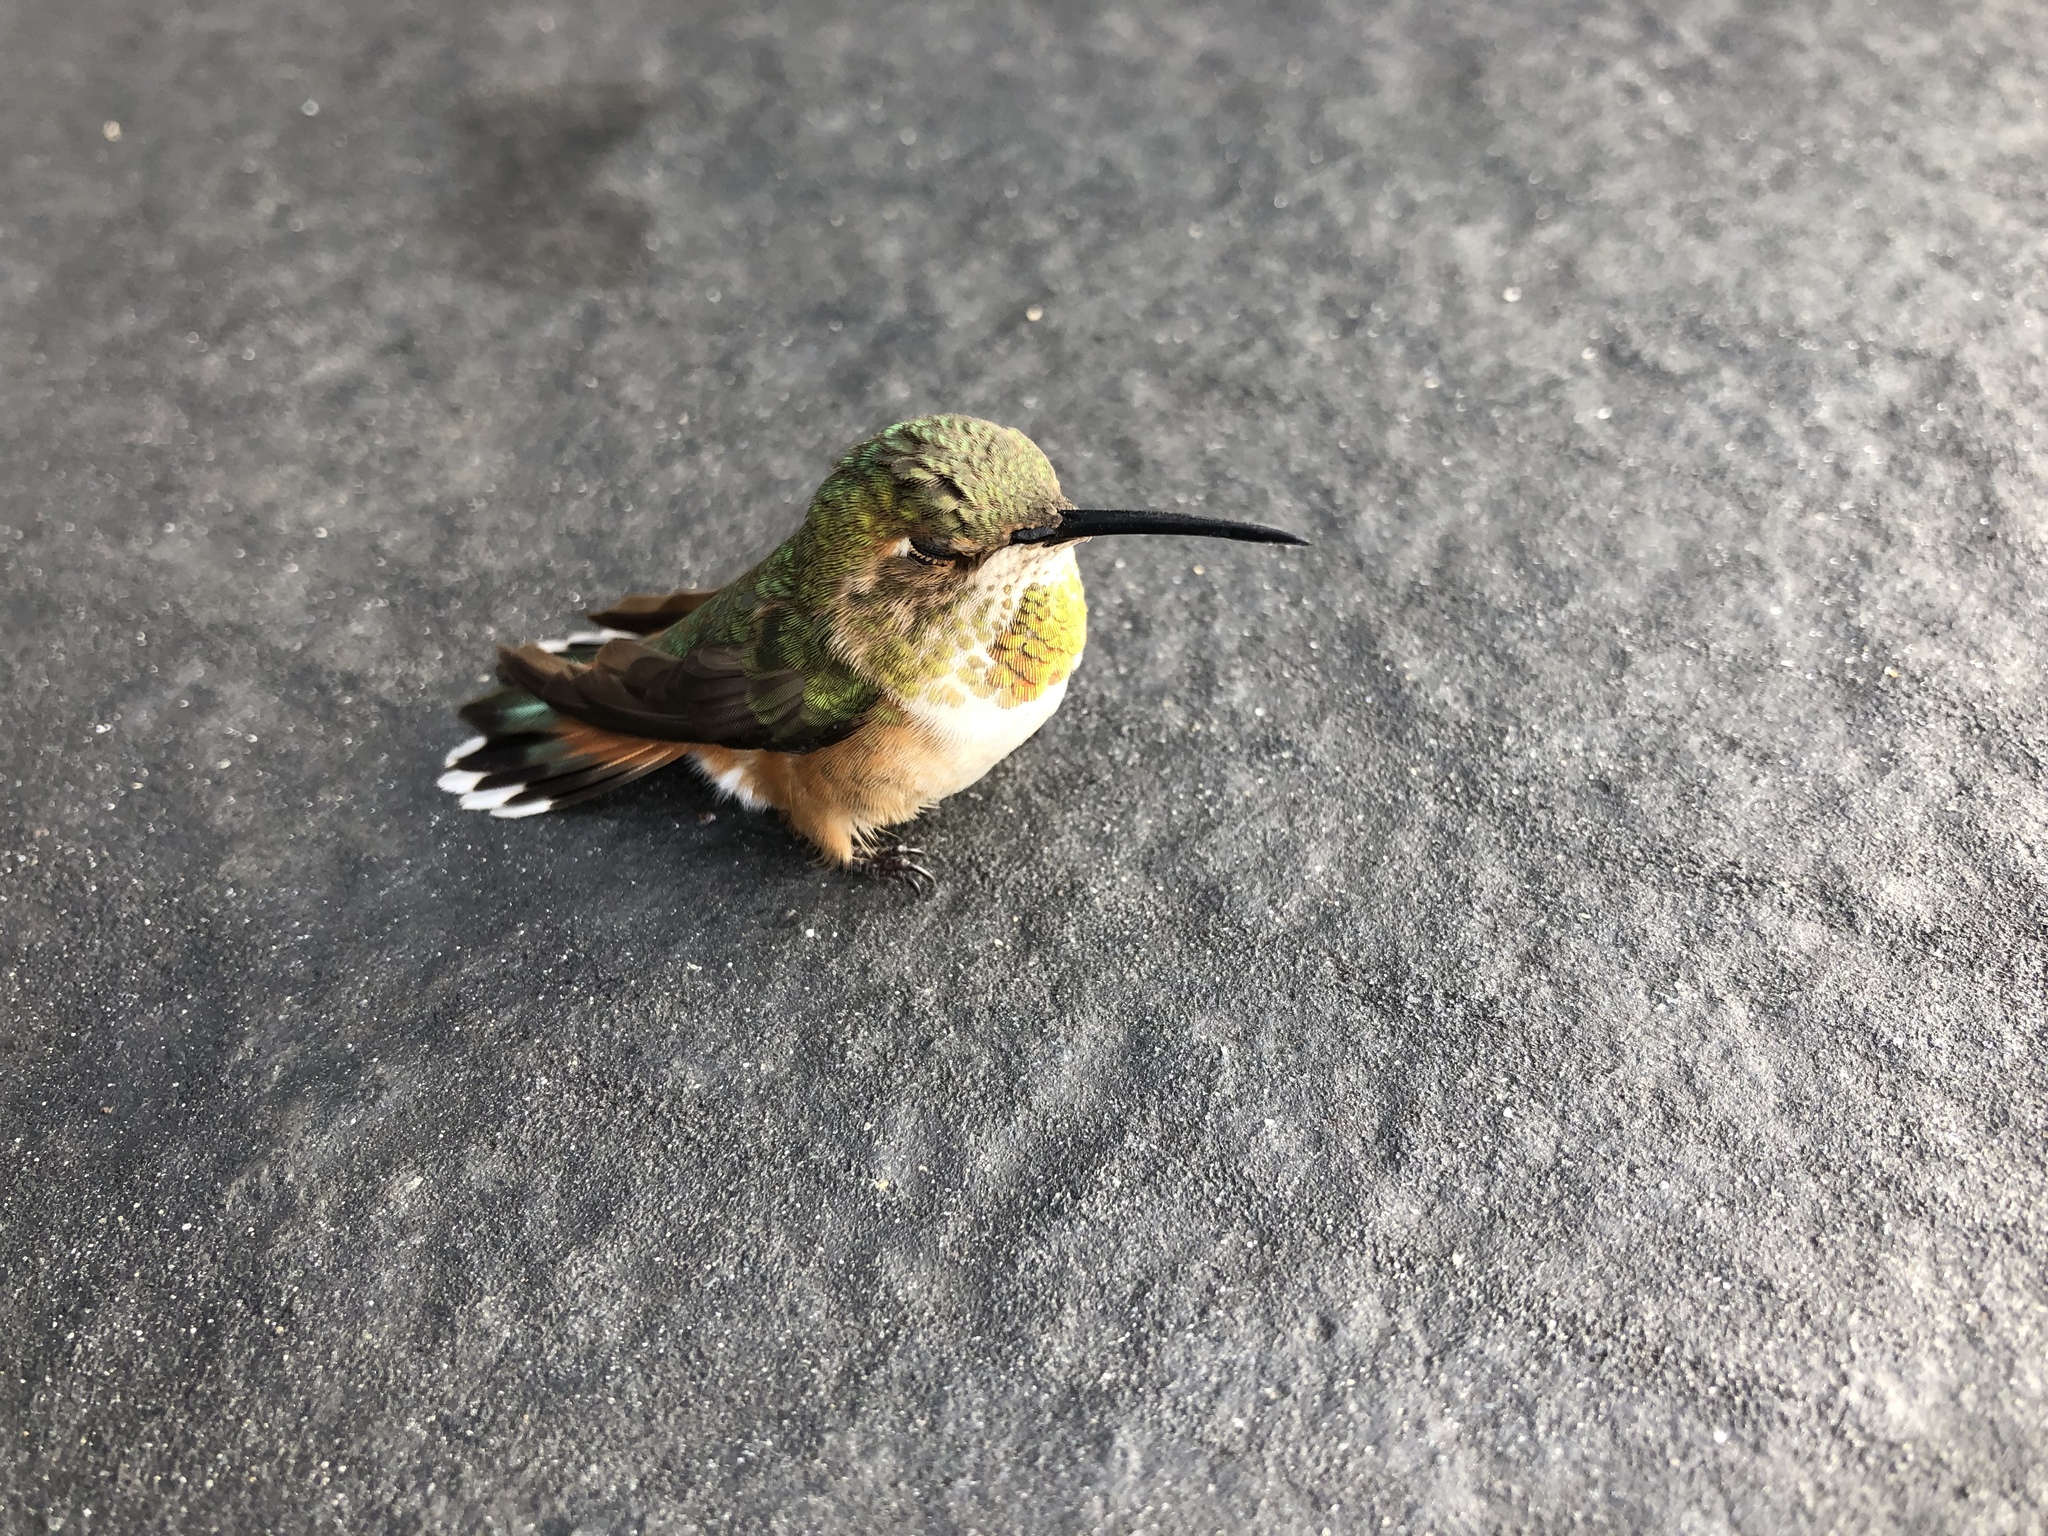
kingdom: Animalia
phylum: Chordata
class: Aves
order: Apodiformes
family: Trochilidae
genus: Selasphorus
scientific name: Selasphorus sasin
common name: Allen's hummingbird
